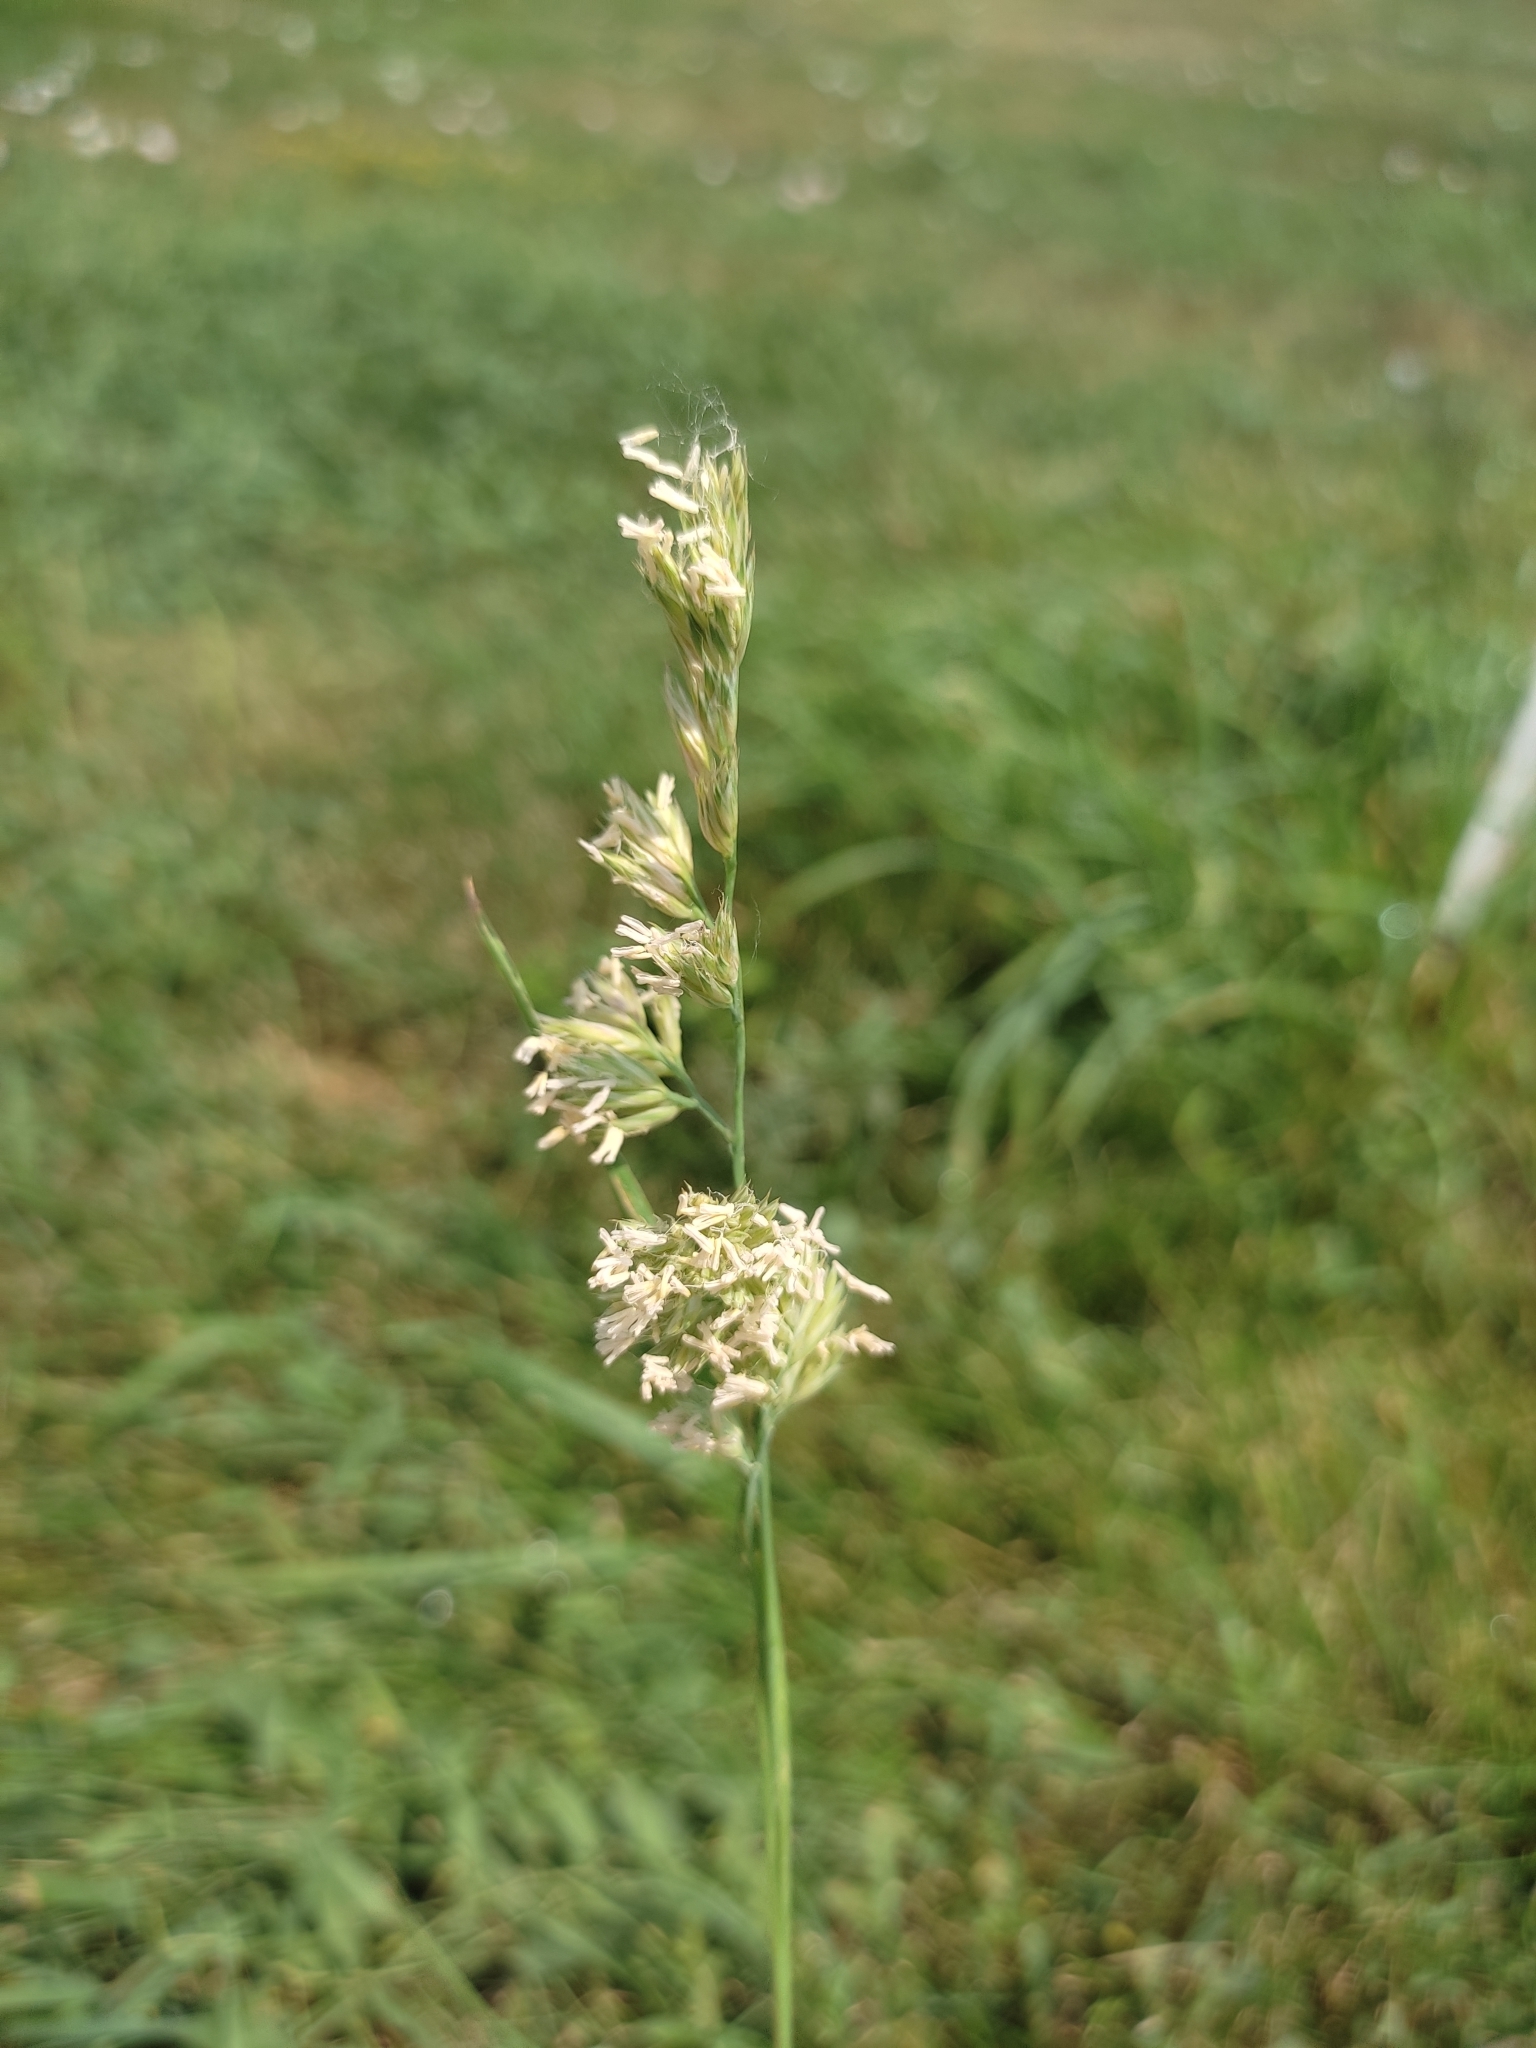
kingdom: Plantae
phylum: Tracheophyta
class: Liliopsida
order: Poales
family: Poaceae
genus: Dactylis
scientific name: Dactylis glomerata
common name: Orchardgrass
